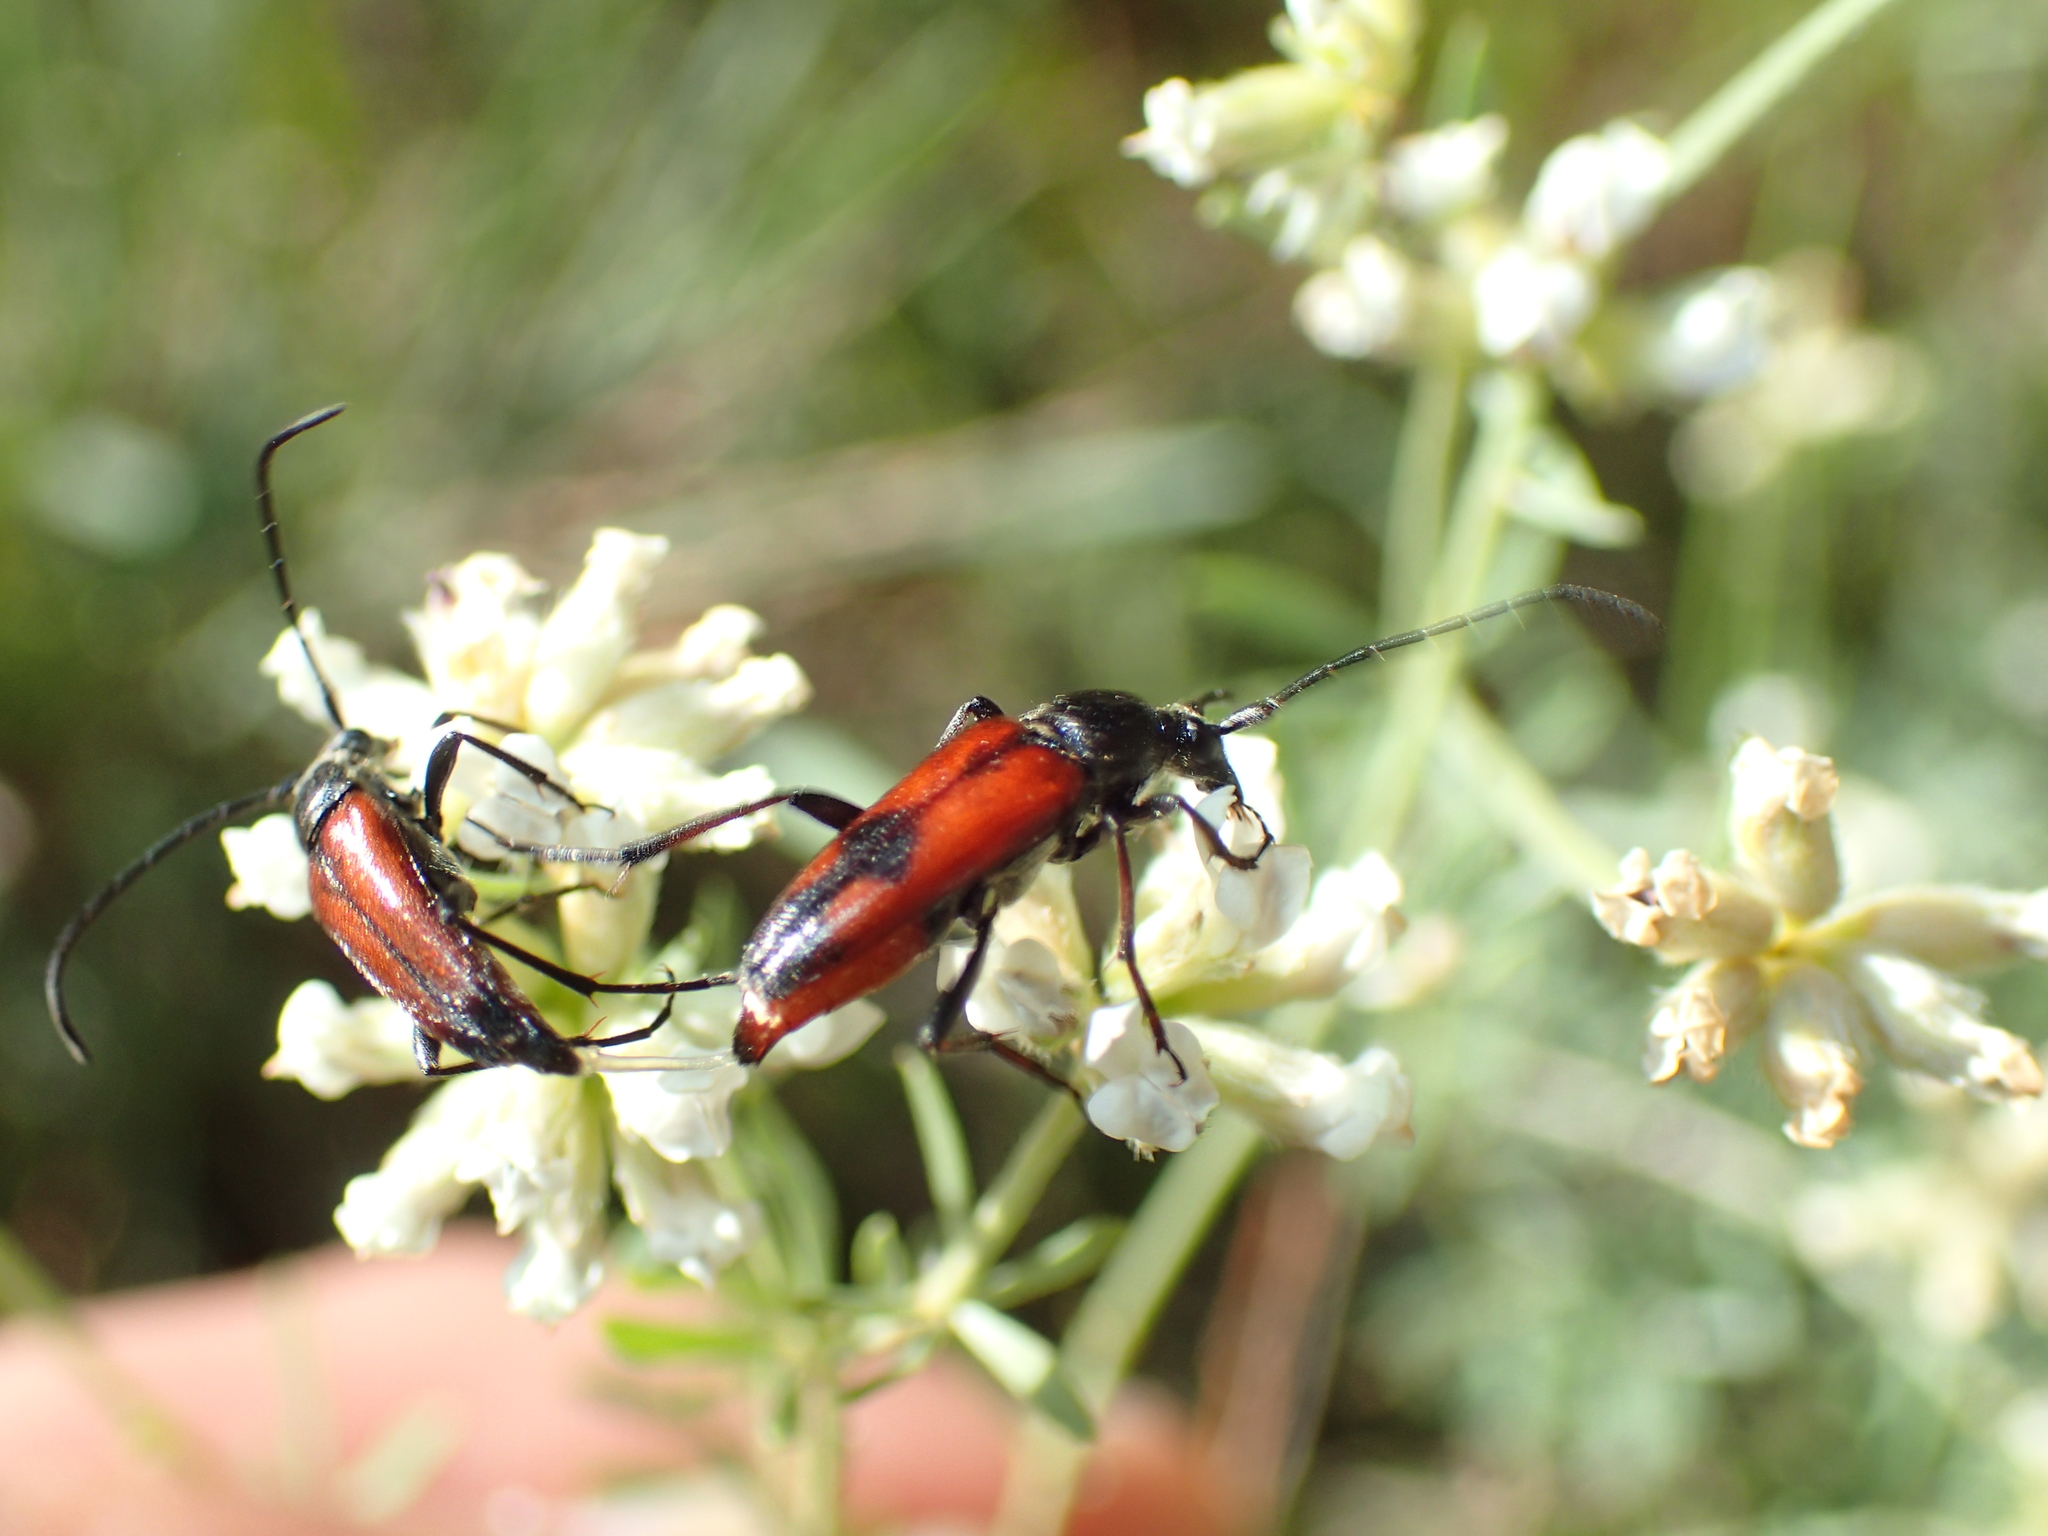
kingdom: Animalia
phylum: Arthropoda
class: Insecta
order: Coleoptera
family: Cerambycidae
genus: Stictoleptura
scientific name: Stictoleptura cordigera
